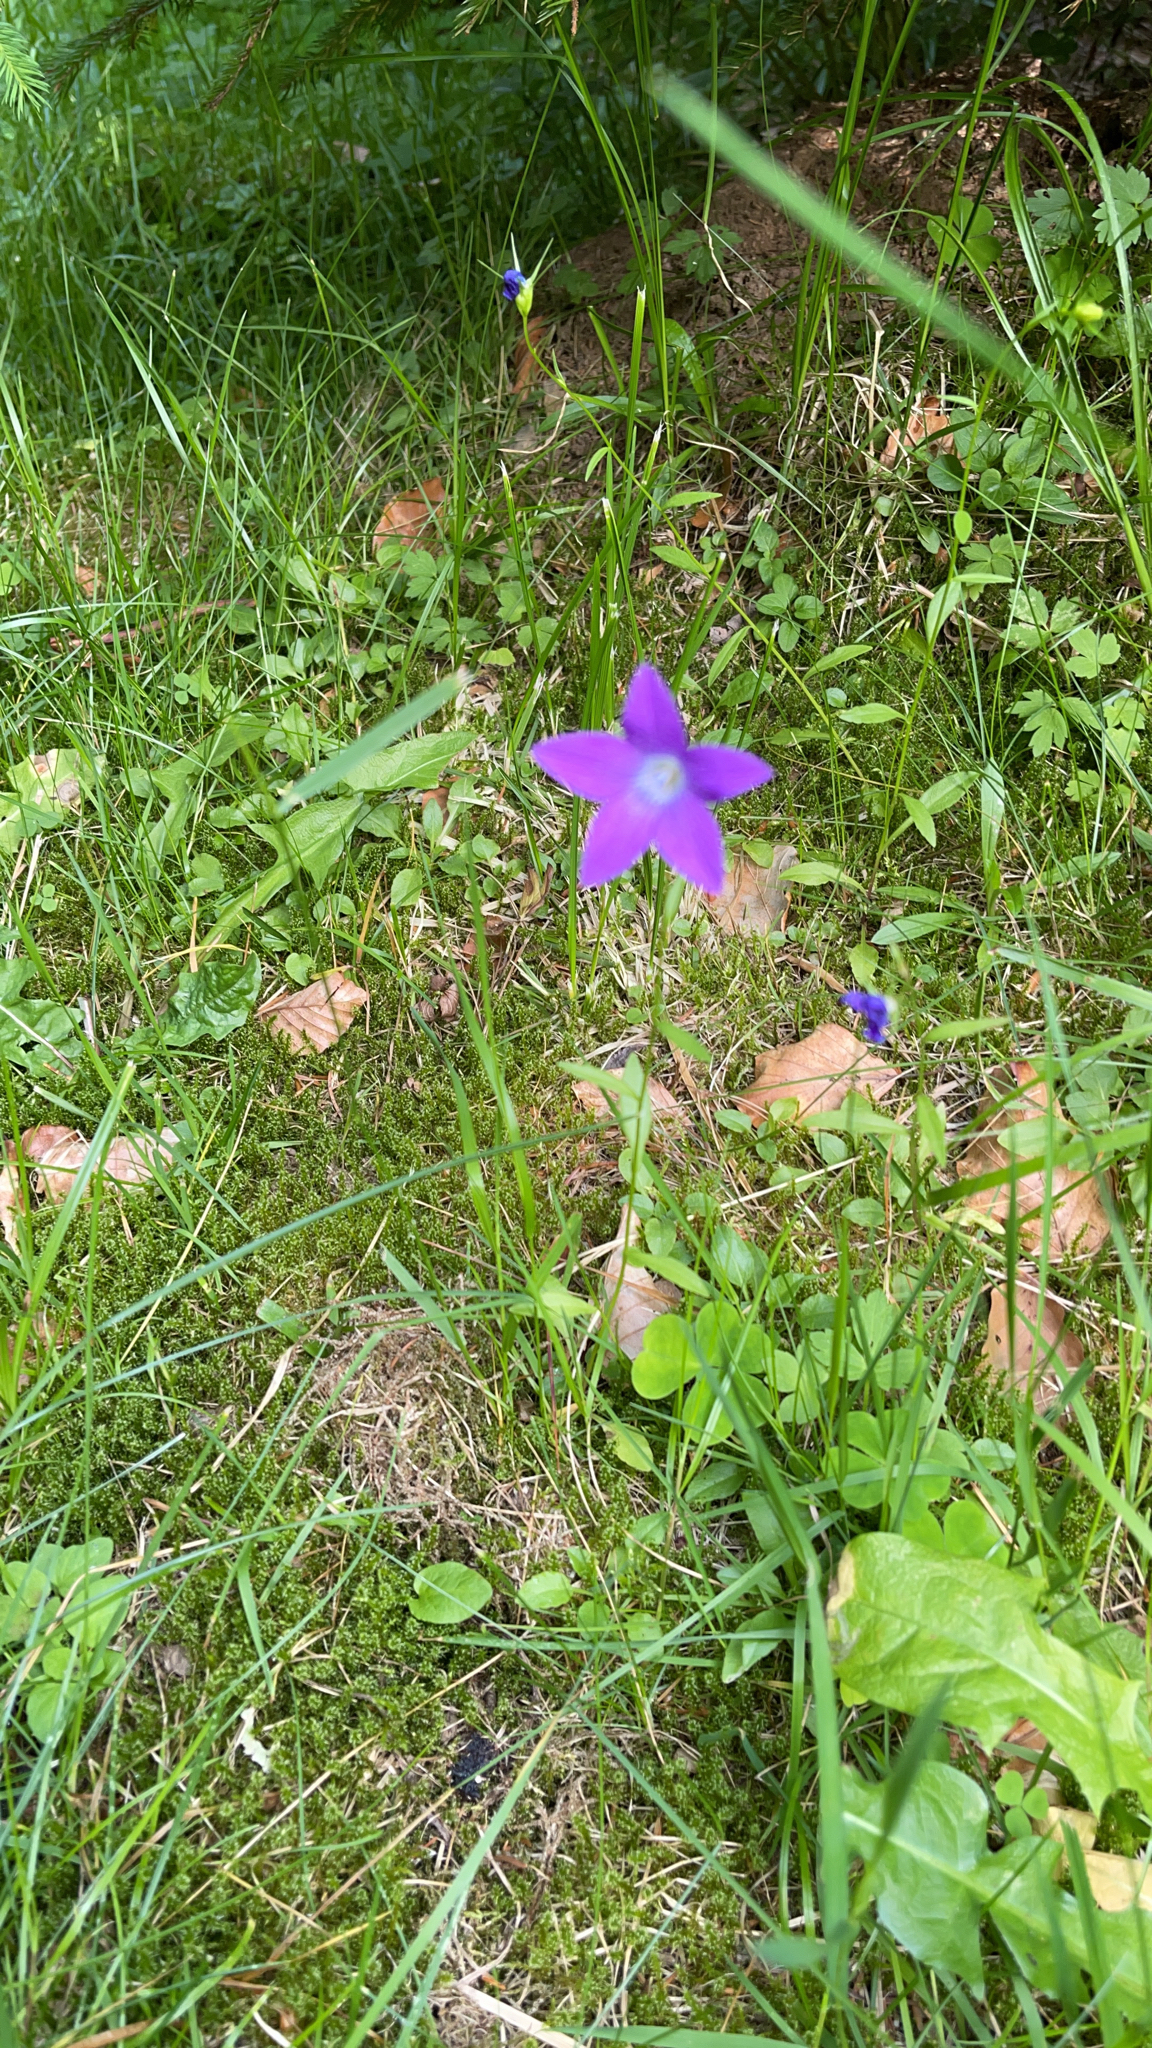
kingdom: Plantae
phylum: Tracheophyta
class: Magnoliopsida
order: Asterales
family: Campanulaceae
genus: Campanula
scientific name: Campanula patula
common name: Spreading bellflower
